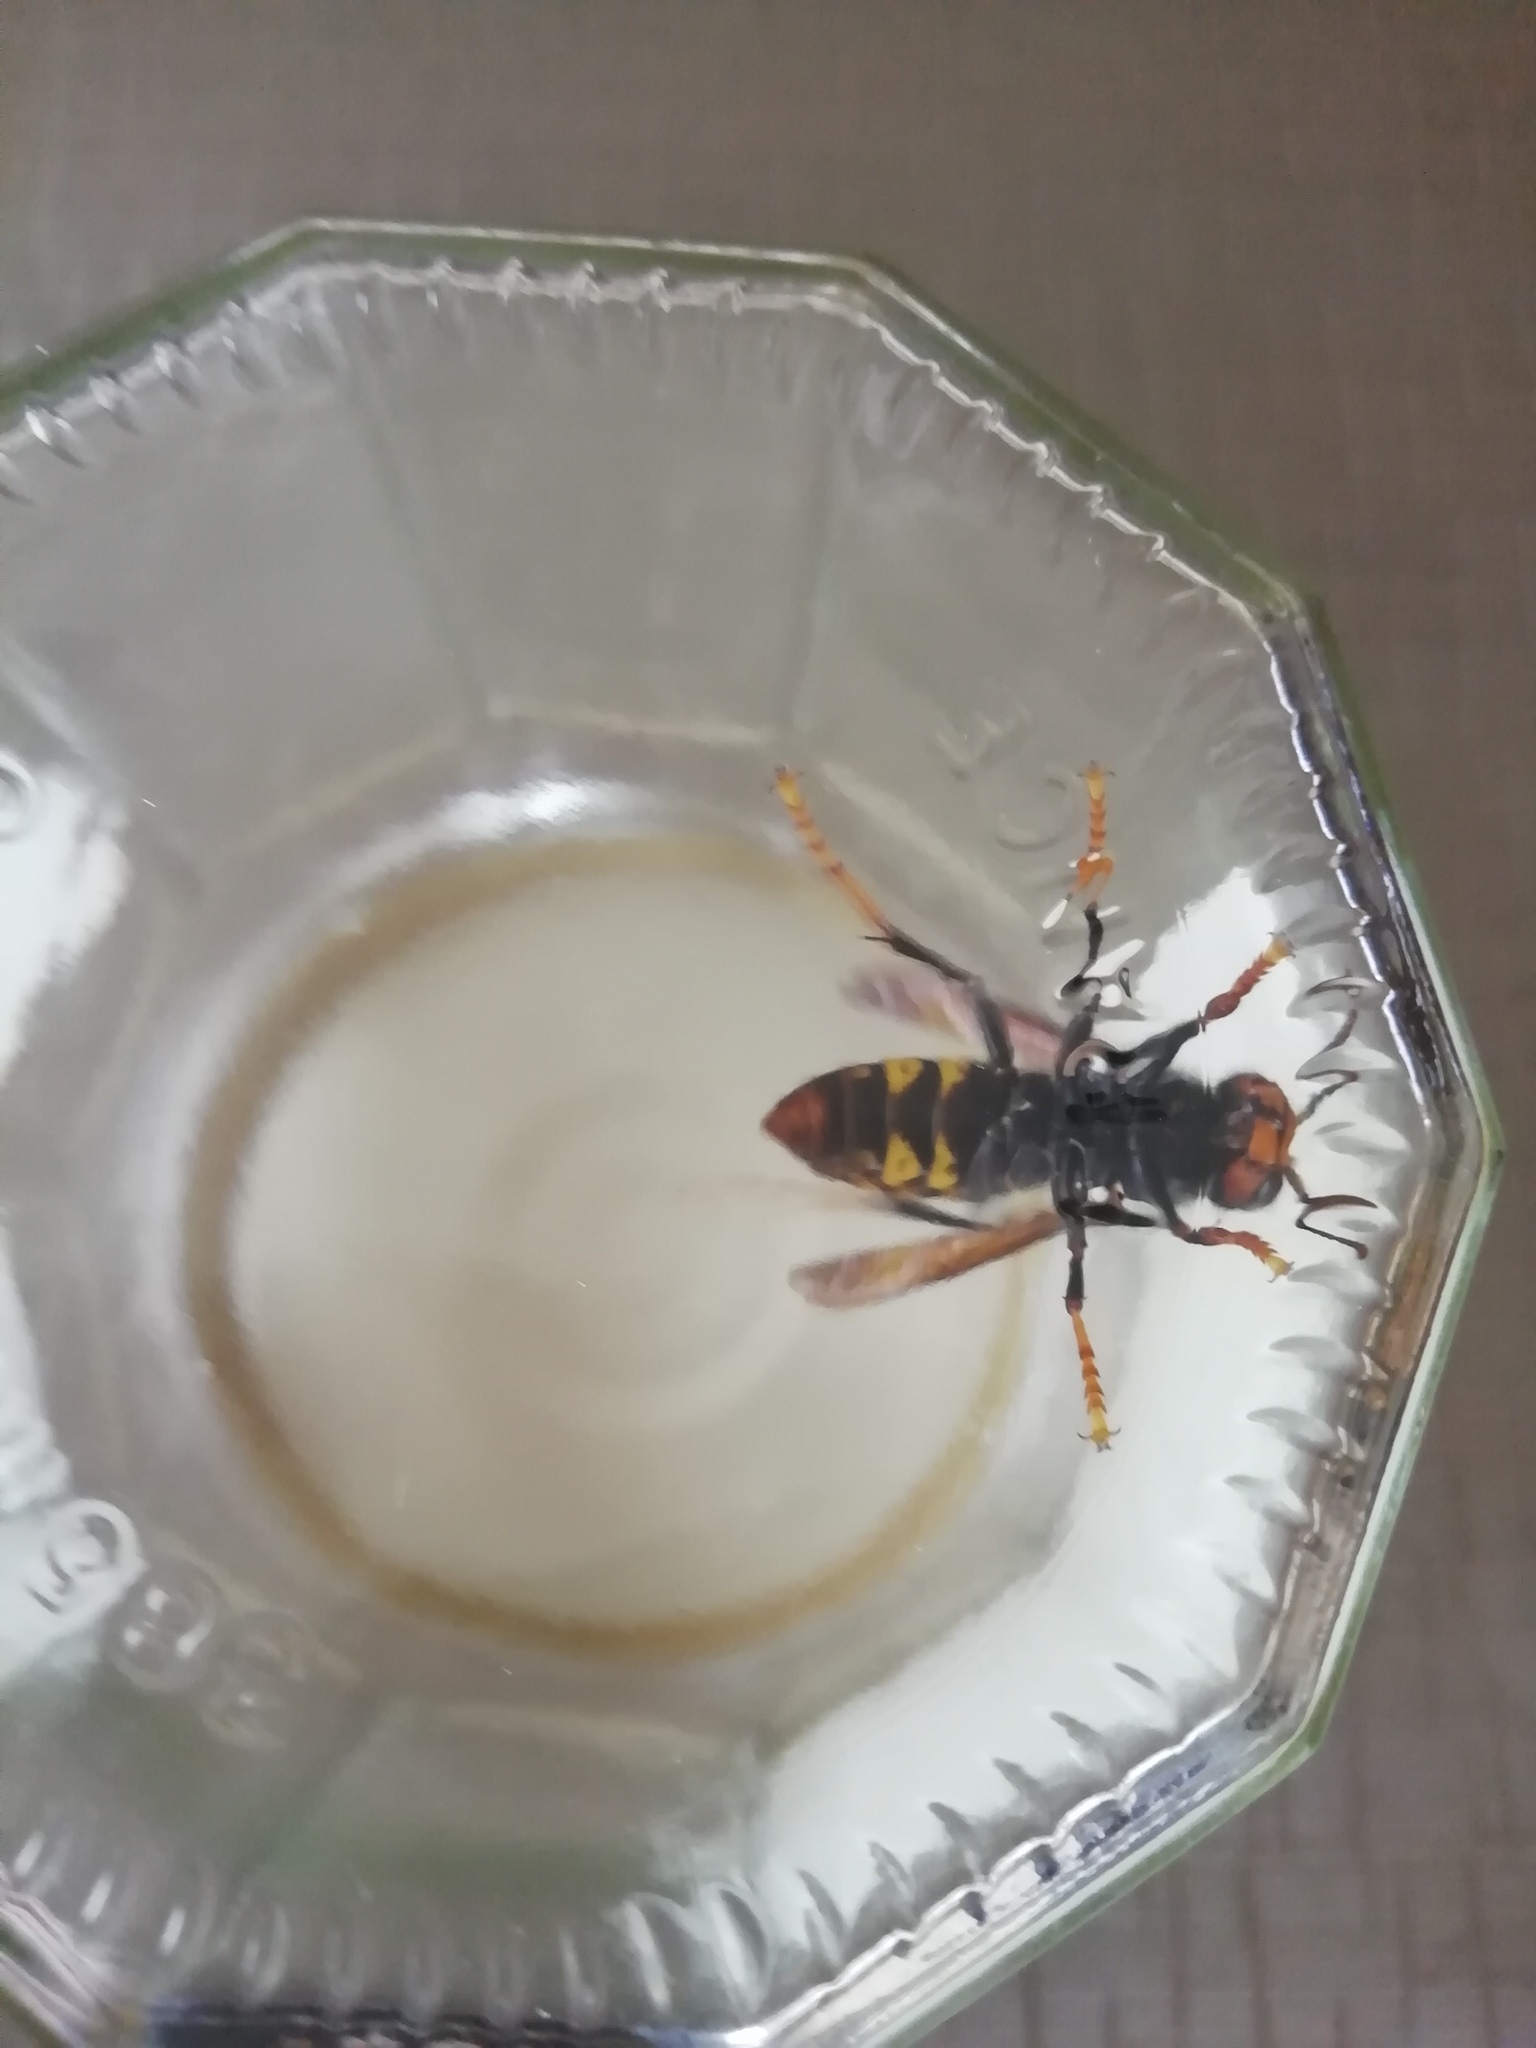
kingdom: Animalia
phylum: Arthropoda
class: Insecta
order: Hymenoptera
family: Vespidae
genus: Vespa
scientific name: Vespa velutina
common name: Asian hornet
